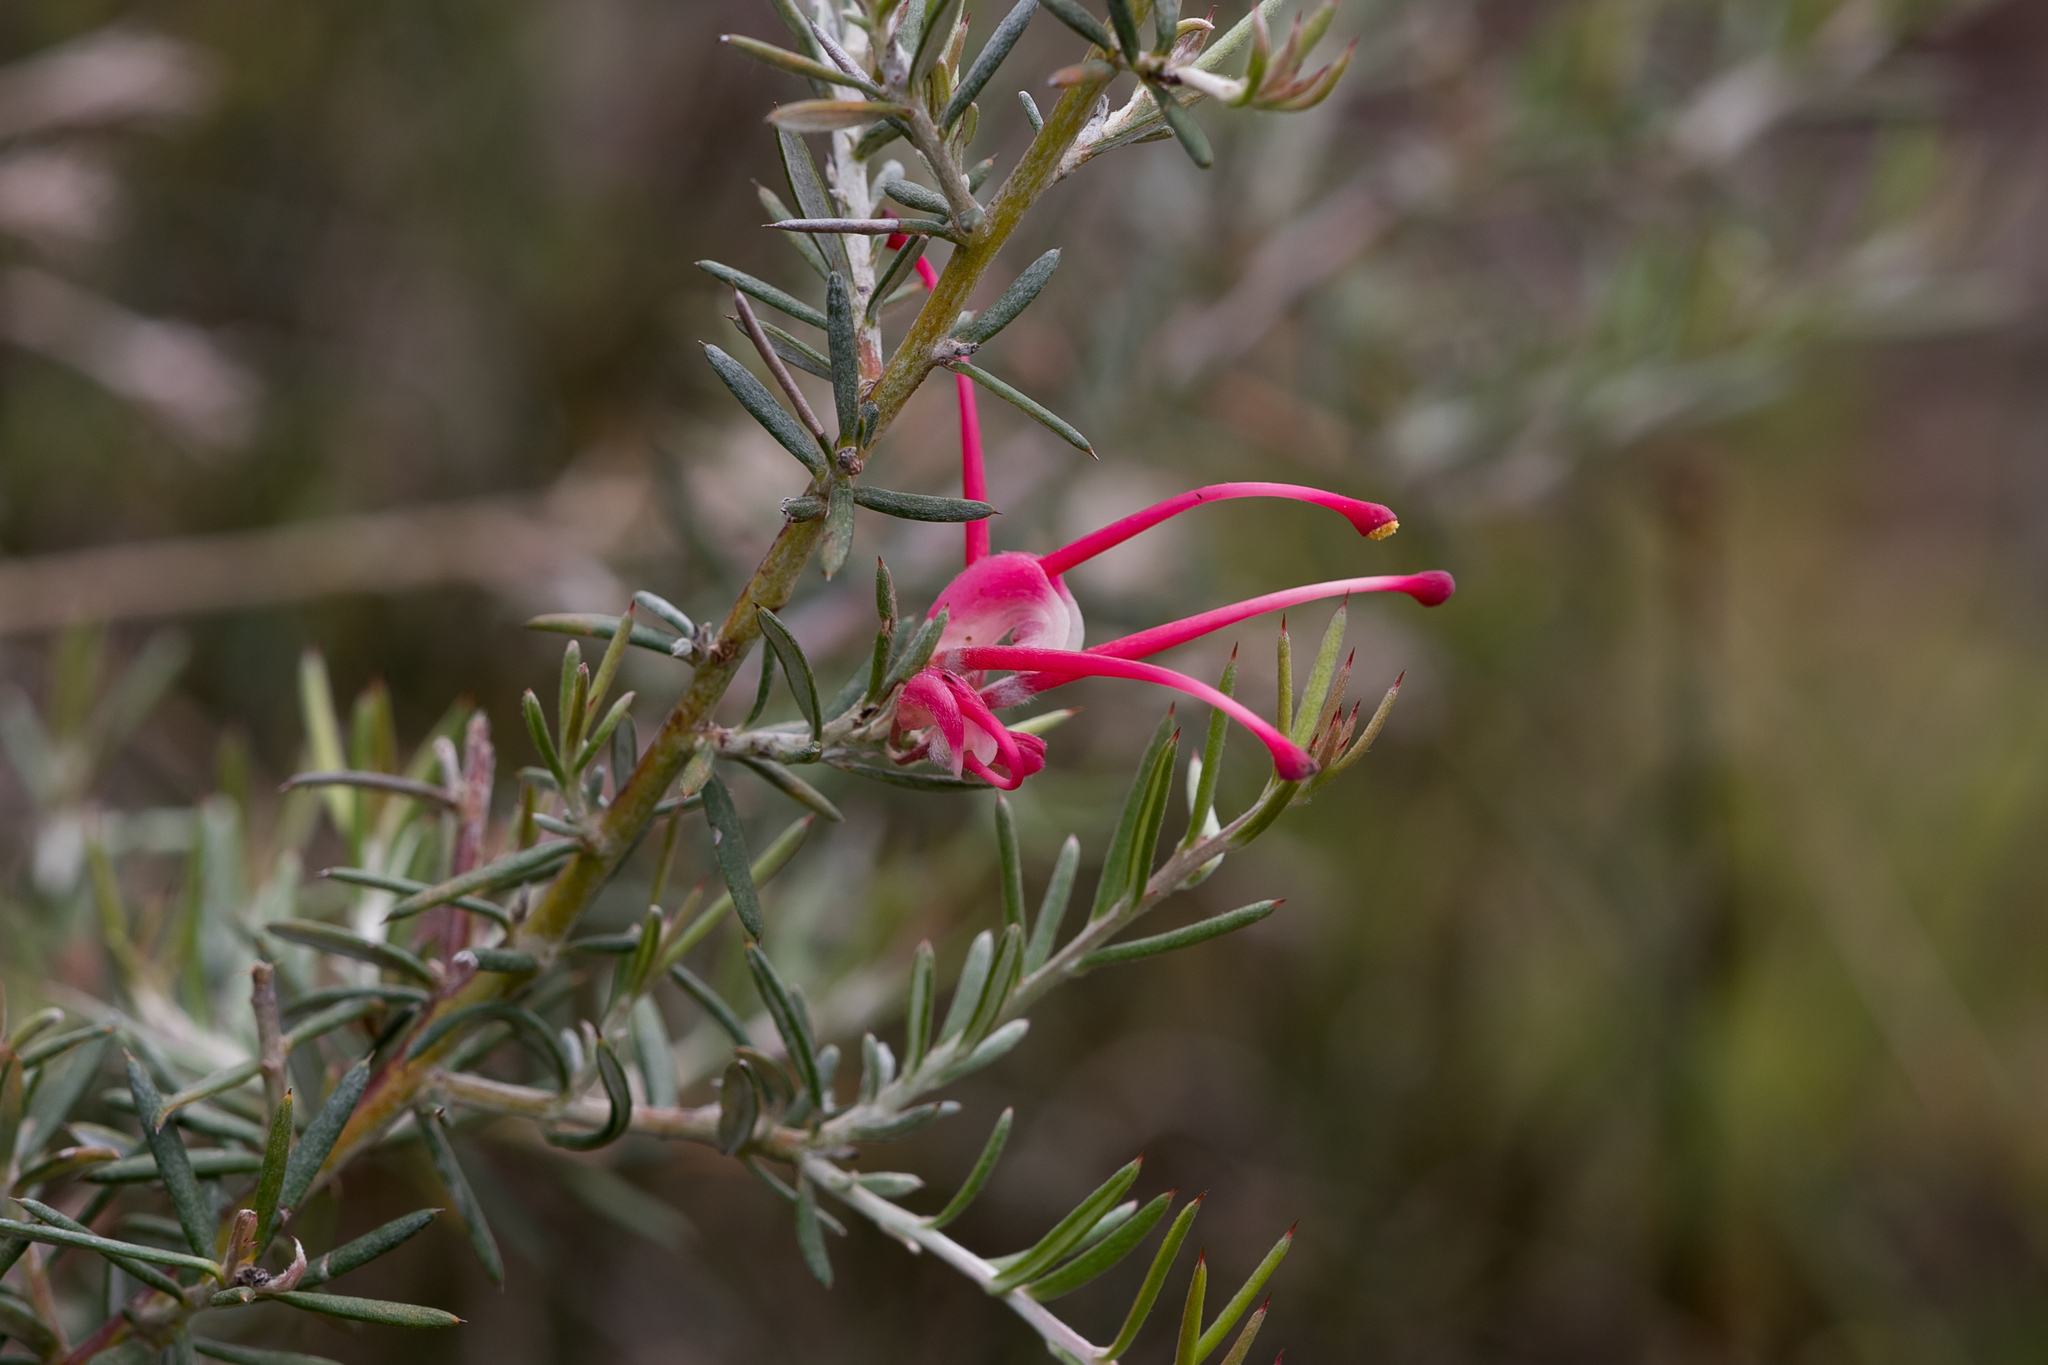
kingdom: Plantae
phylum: Tracheophyta
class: Magnoliopsida
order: Proteales
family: Proteaceae
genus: Grevillea
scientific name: Grevillea lavandulacea
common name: Lavender grevillea
